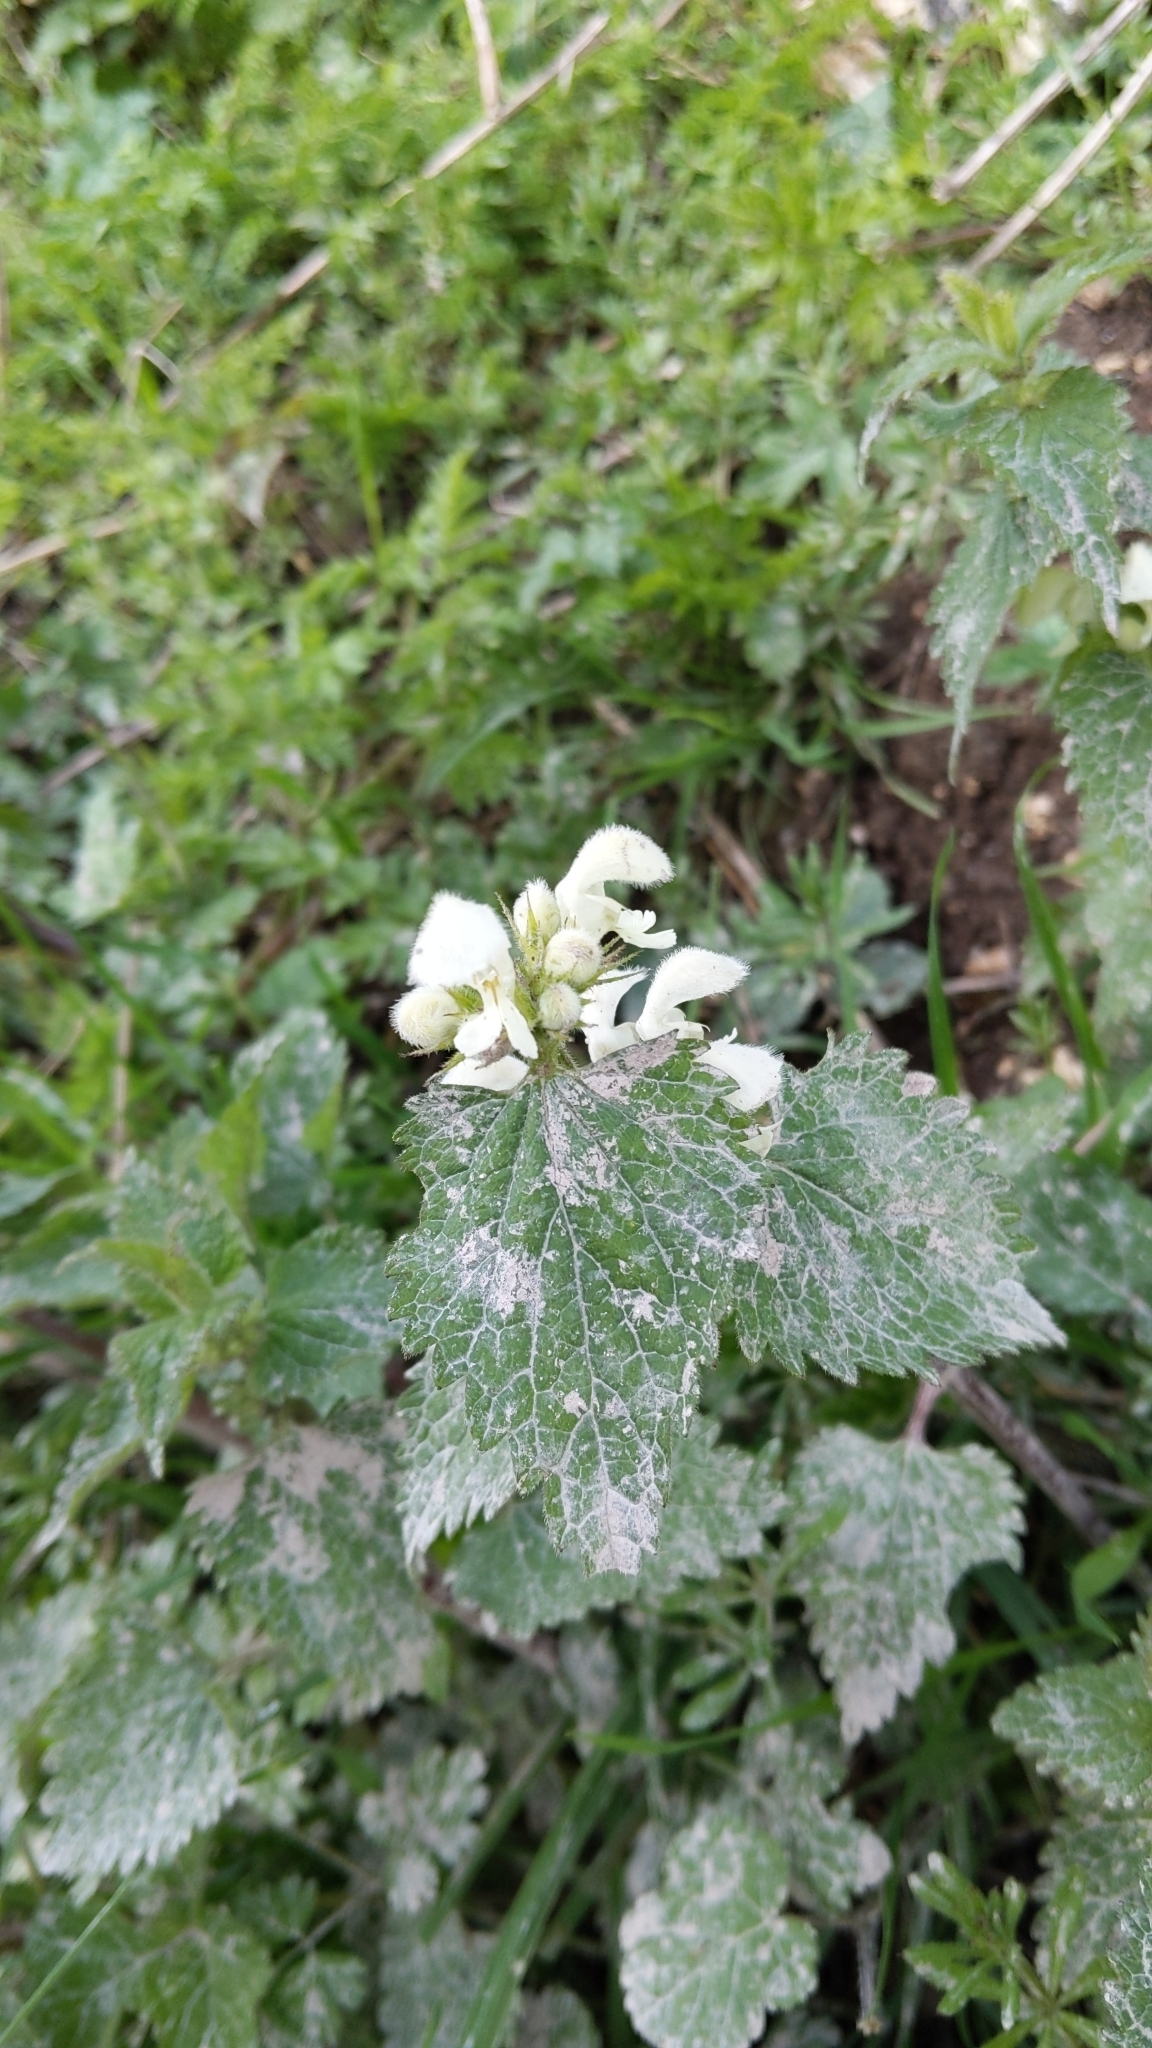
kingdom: Plantae
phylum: Tracheophyta
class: Magnoliopsida
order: Lamiales
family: Lamiaceae
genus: Lamium
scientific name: Lamium album
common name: White dead-nettle
